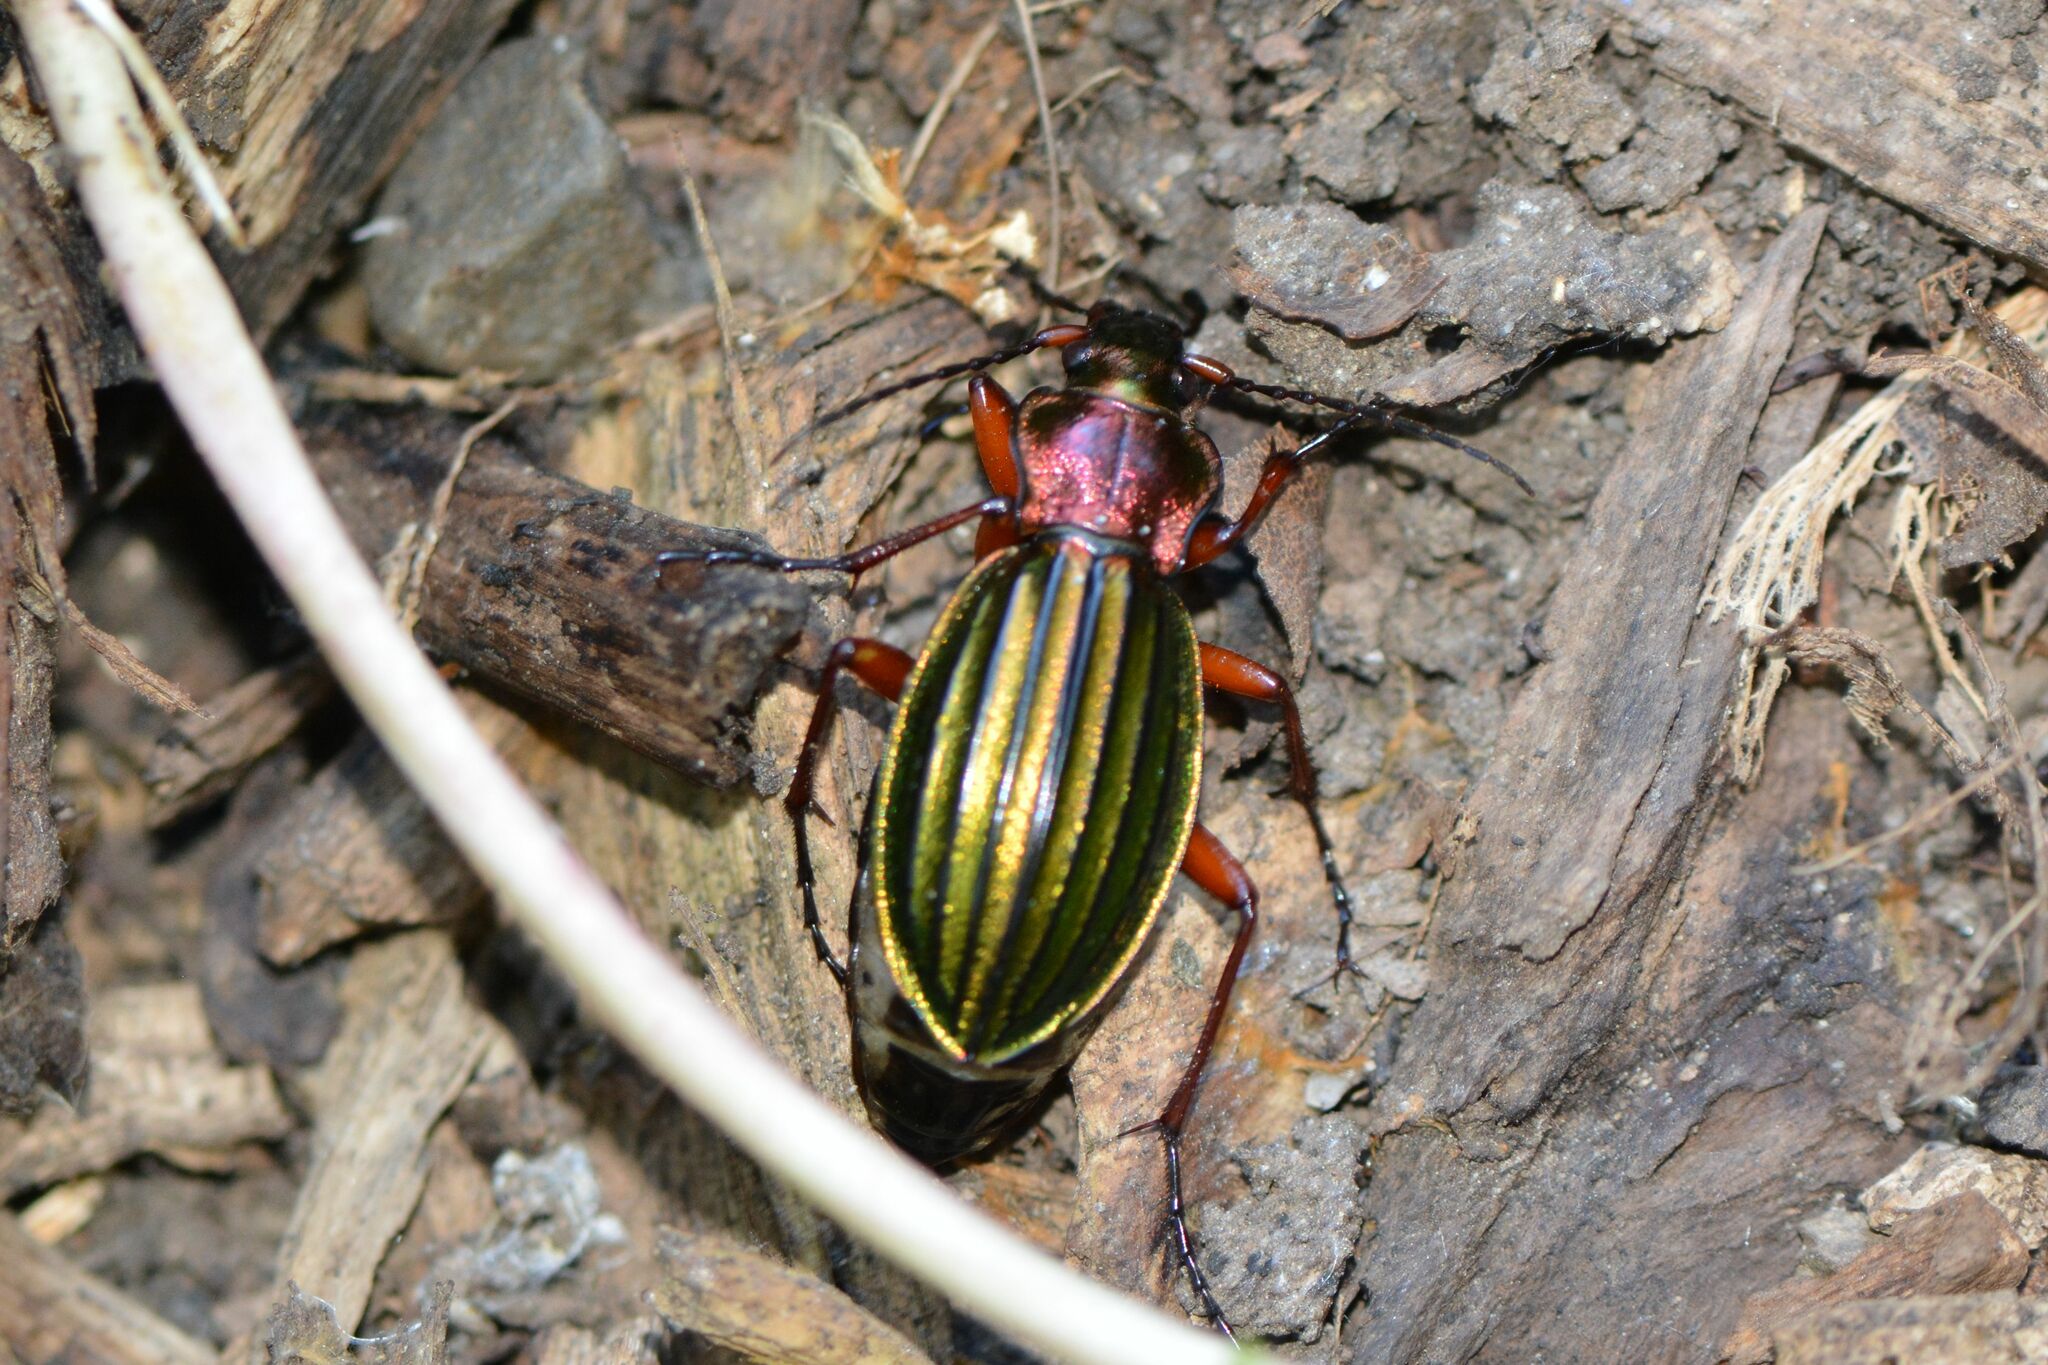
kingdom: Animalia
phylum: Arthropoda
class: Insecta
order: Coleoptera
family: Carabidae
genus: Carabus
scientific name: Carabus auronitens
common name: Carabus auronitens
